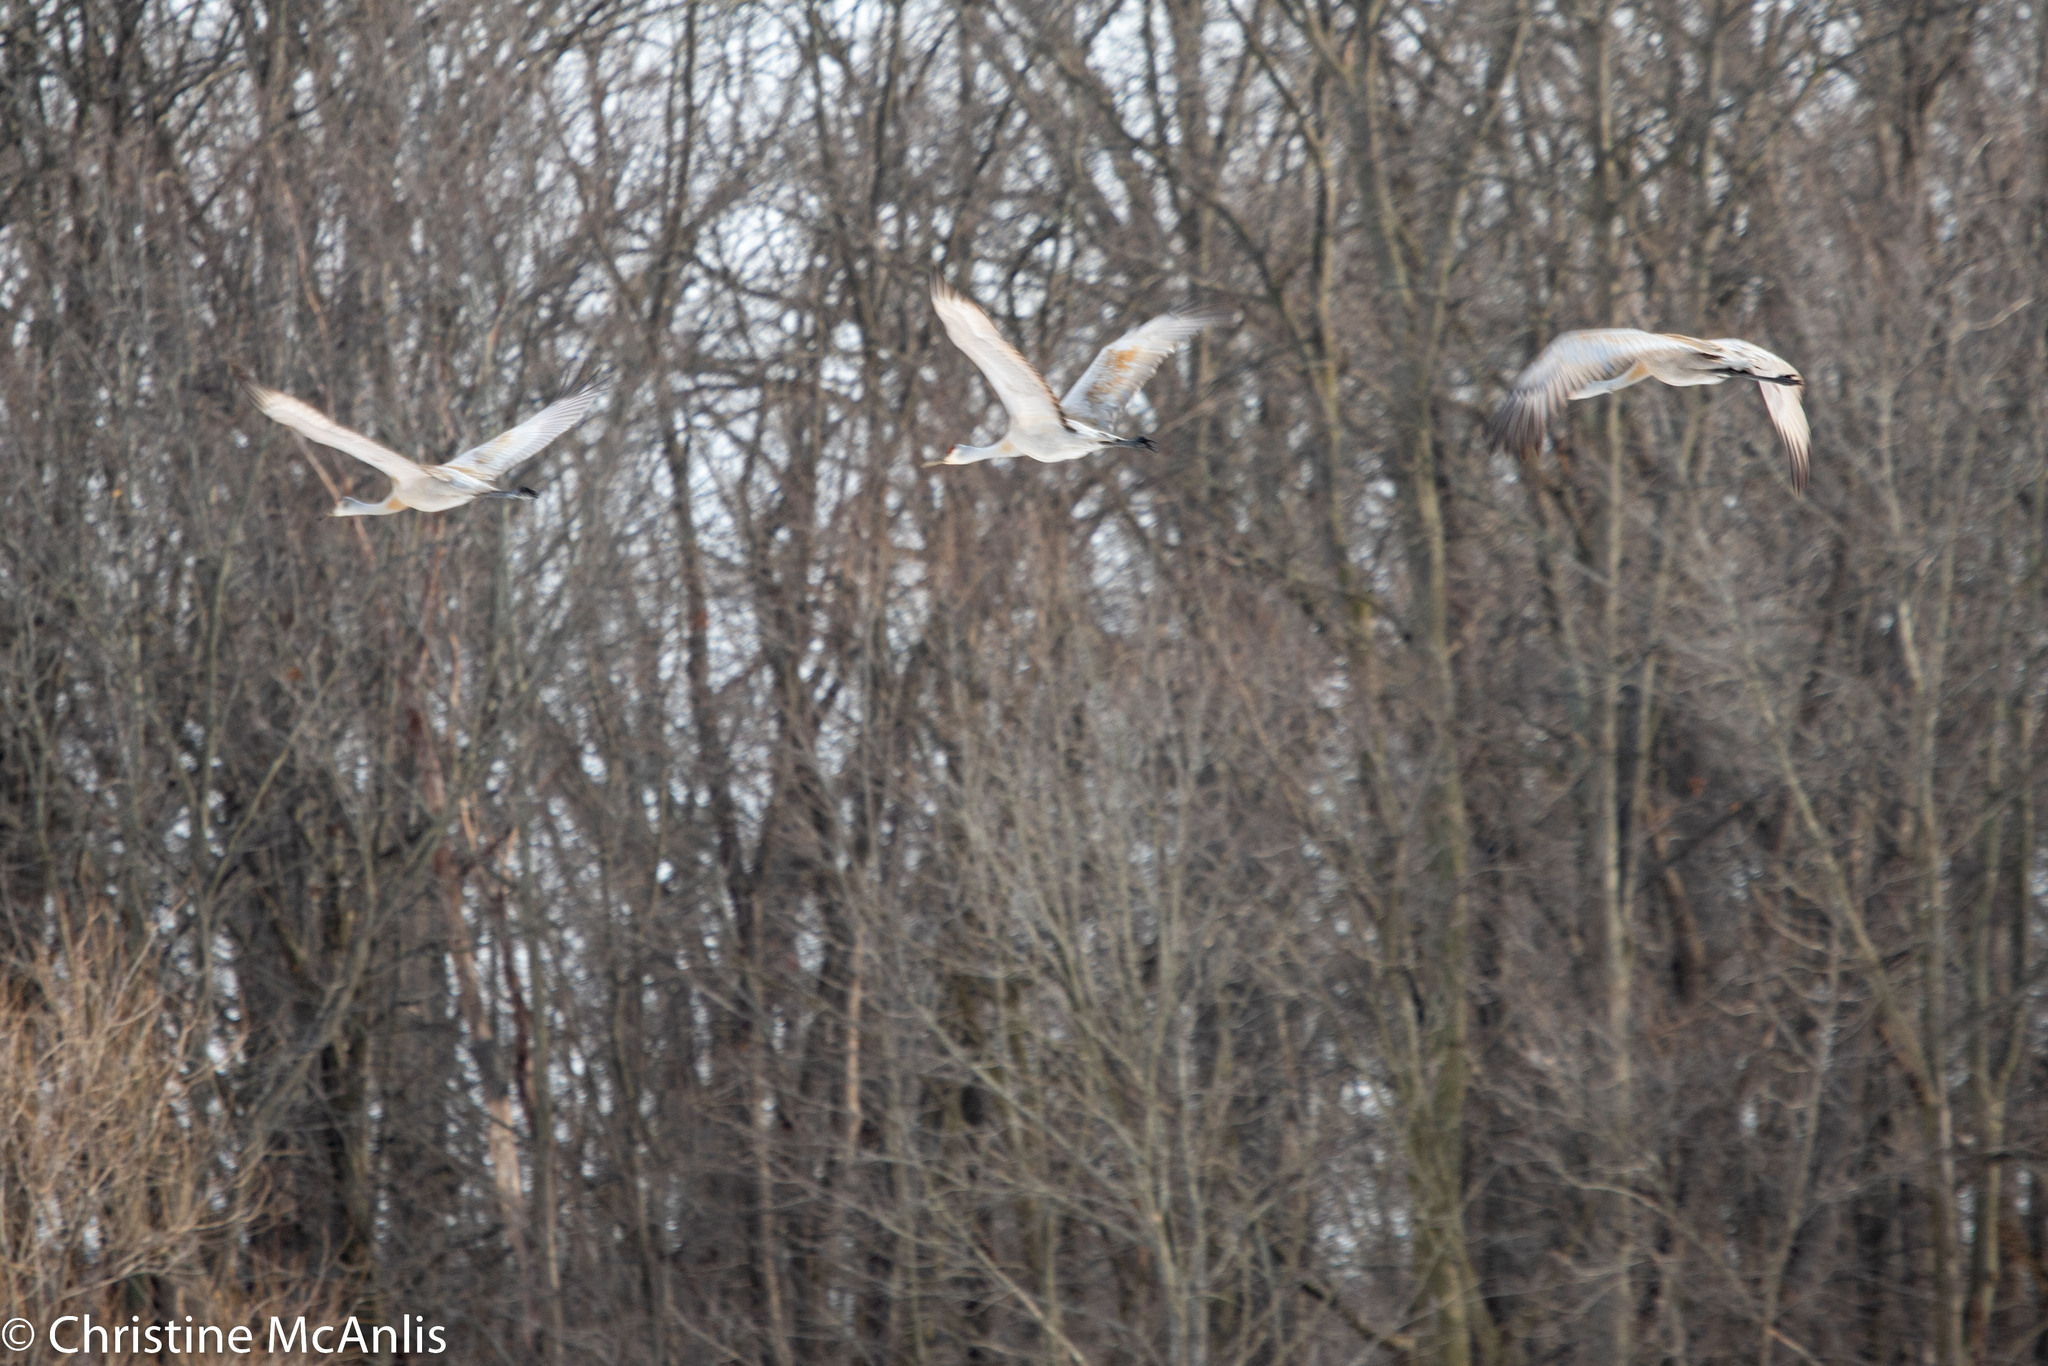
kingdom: Animalia
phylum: Chordata
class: Aves
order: Gruiformes
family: Gruidae
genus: Grus
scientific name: Grus canadensis
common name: Sandhill crane
